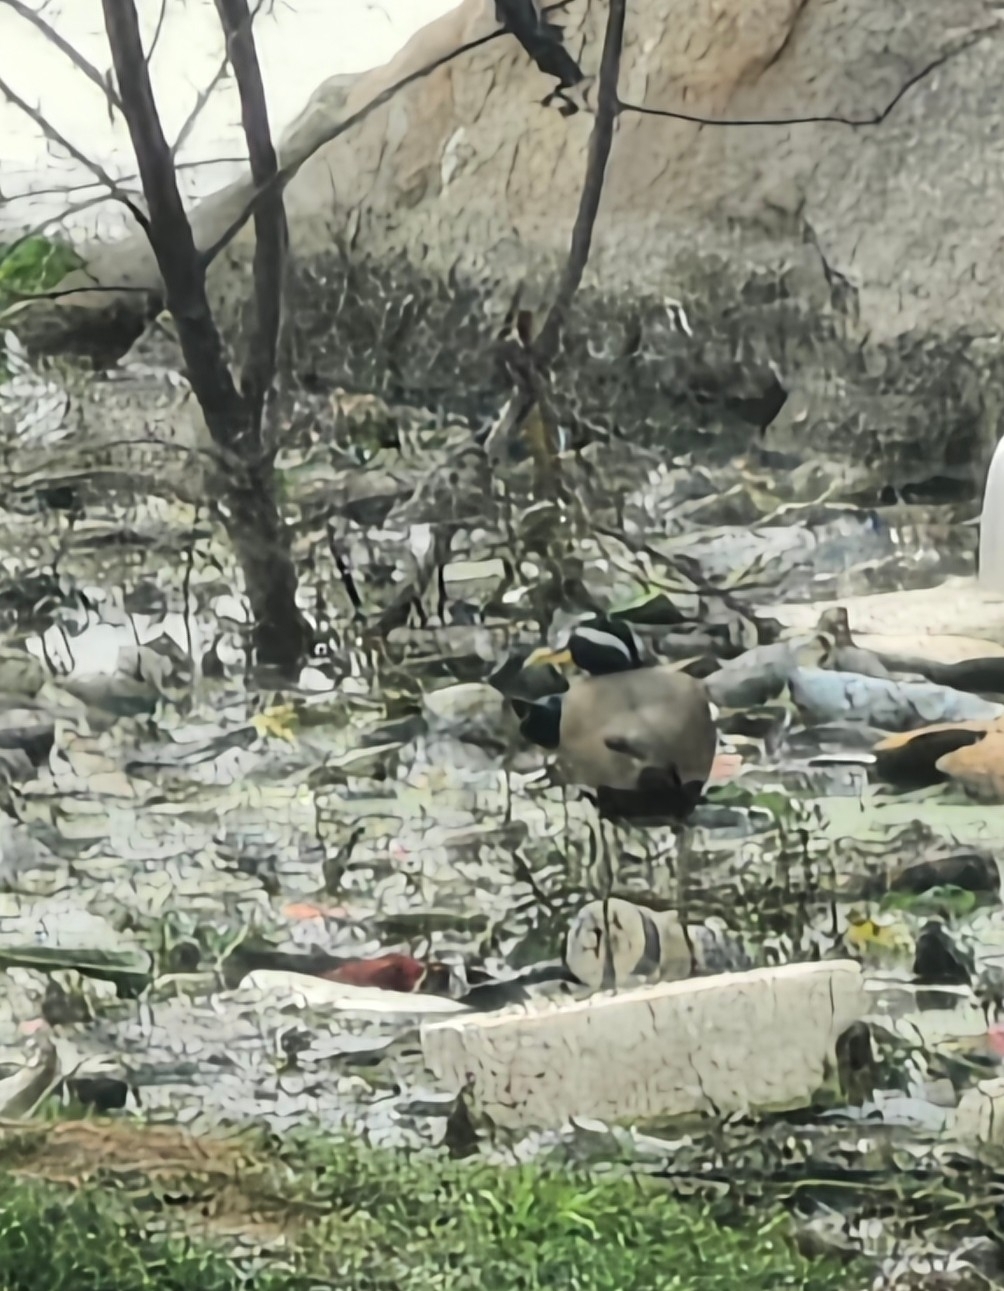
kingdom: Animalia
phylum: Chordata
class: Aves
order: Charadriiformes
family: Jacanidae
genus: Metopidius
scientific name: Metopidius indicus
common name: Bronze-winged jacana
